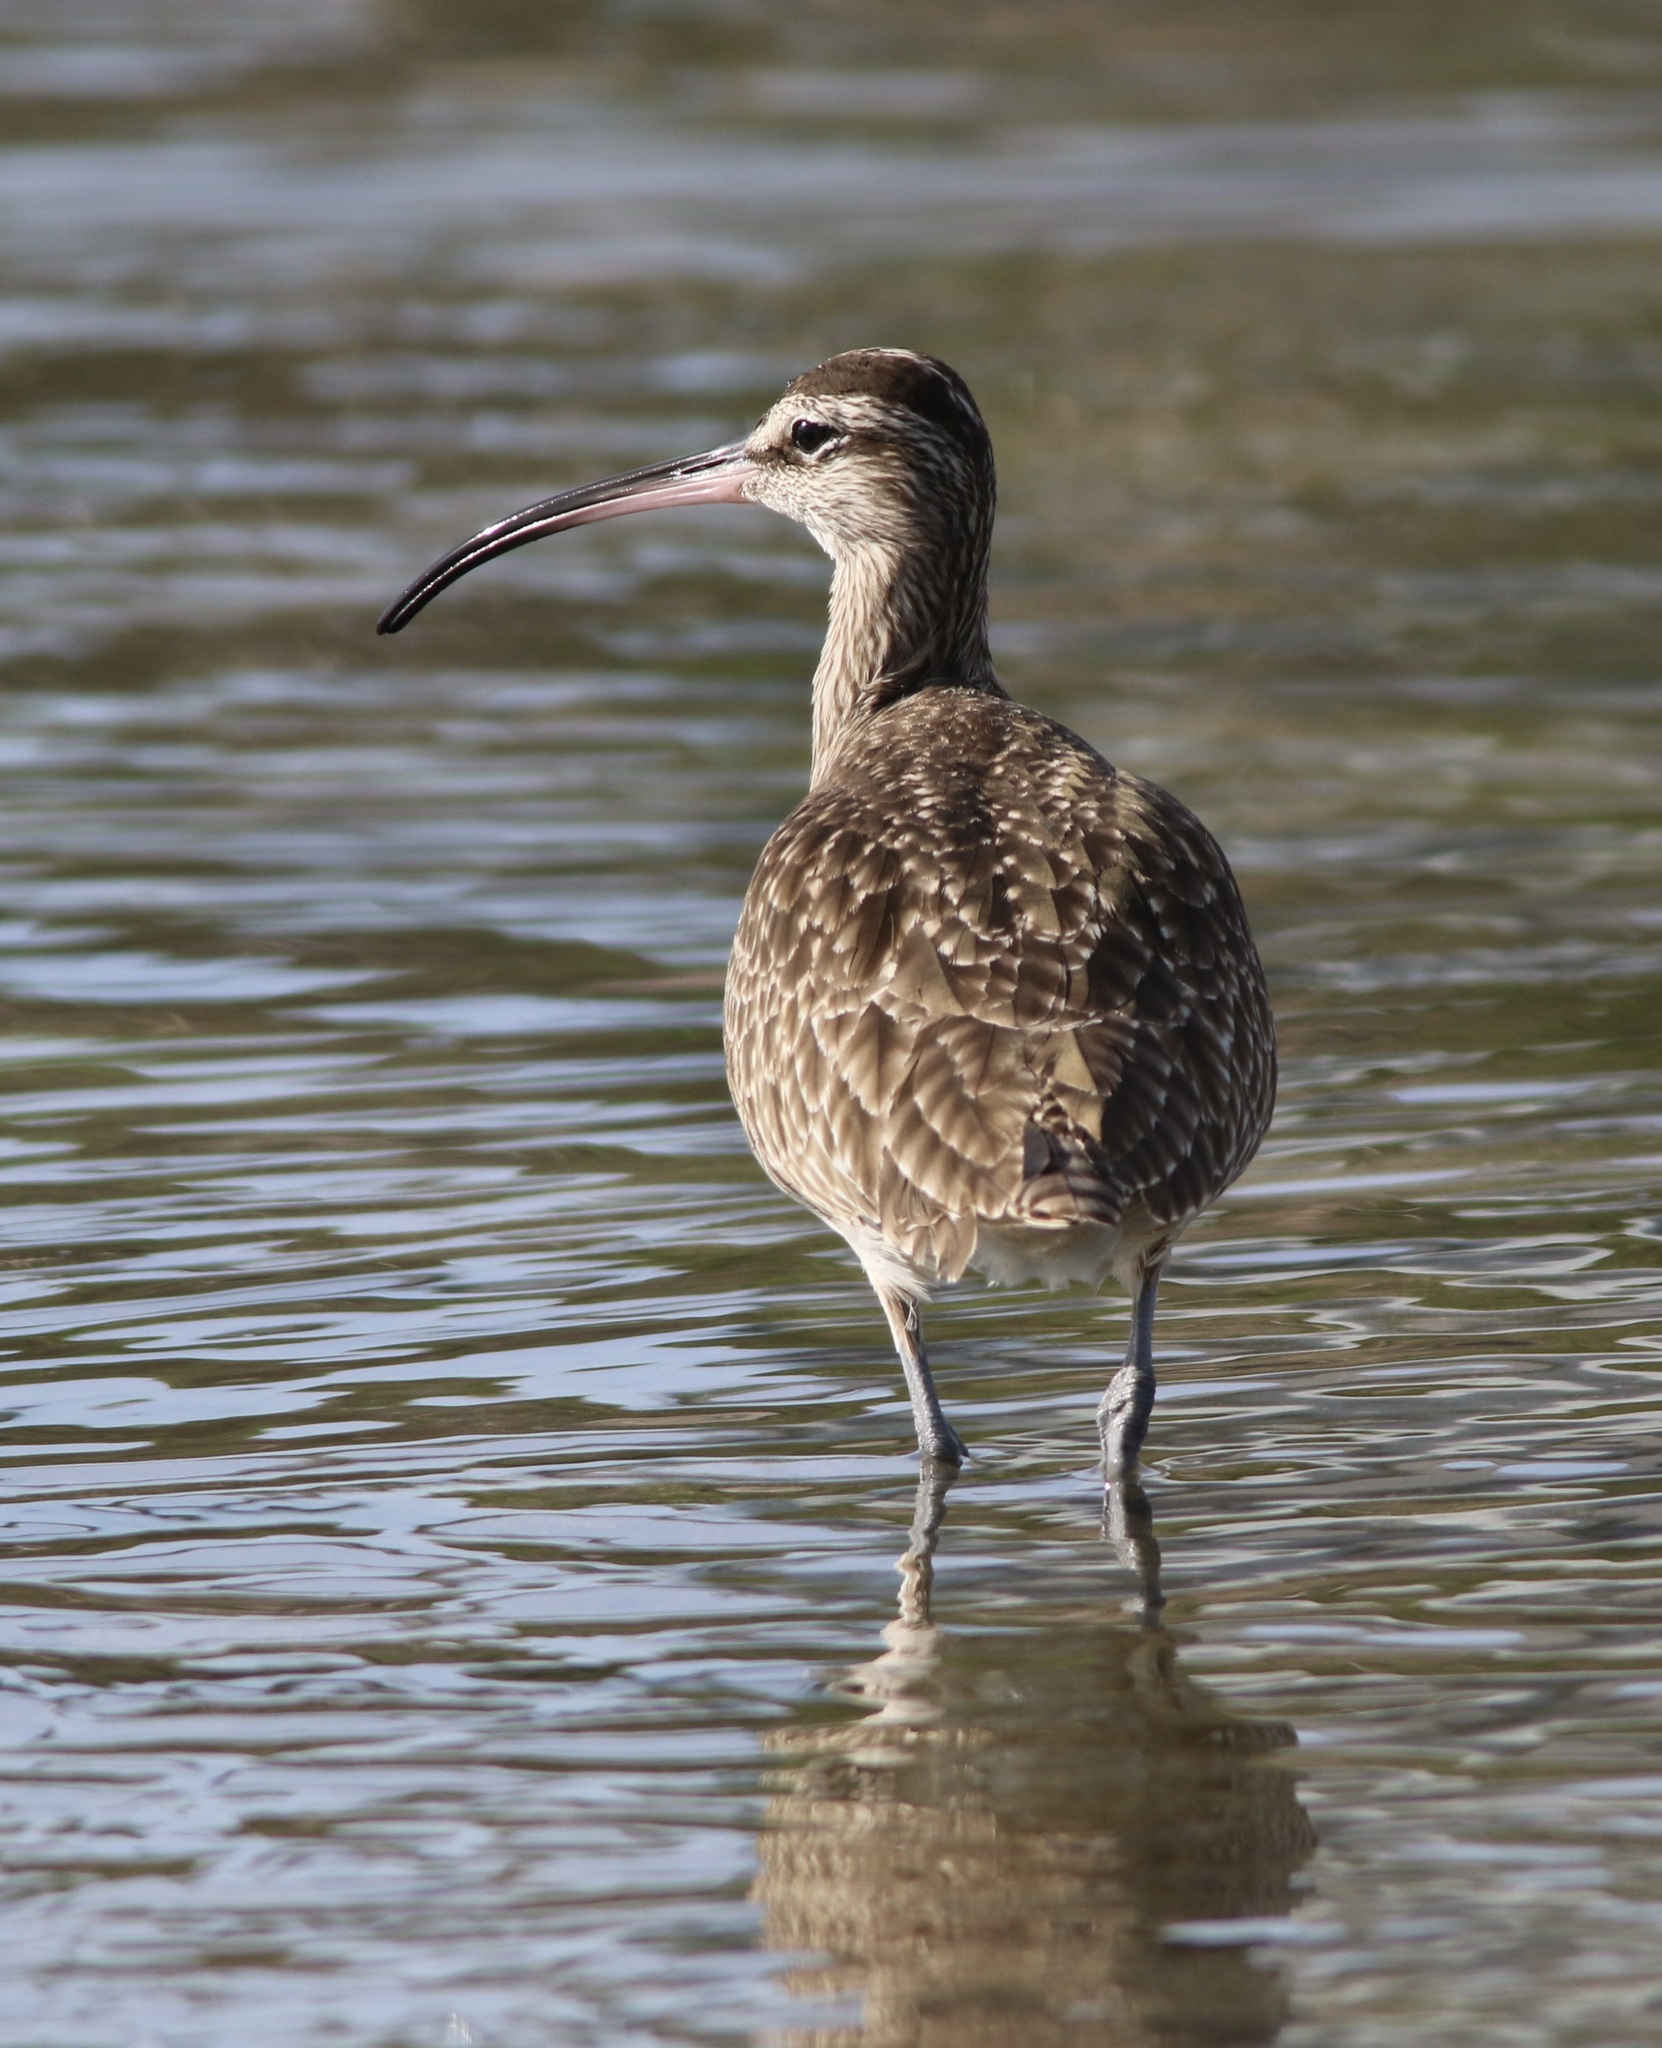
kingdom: Animalia
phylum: Chordata
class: Aves
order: Charadriiformes
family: Scolopacidae
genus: Numenius
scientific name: Numenius phaeopus
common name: Whimbrel
